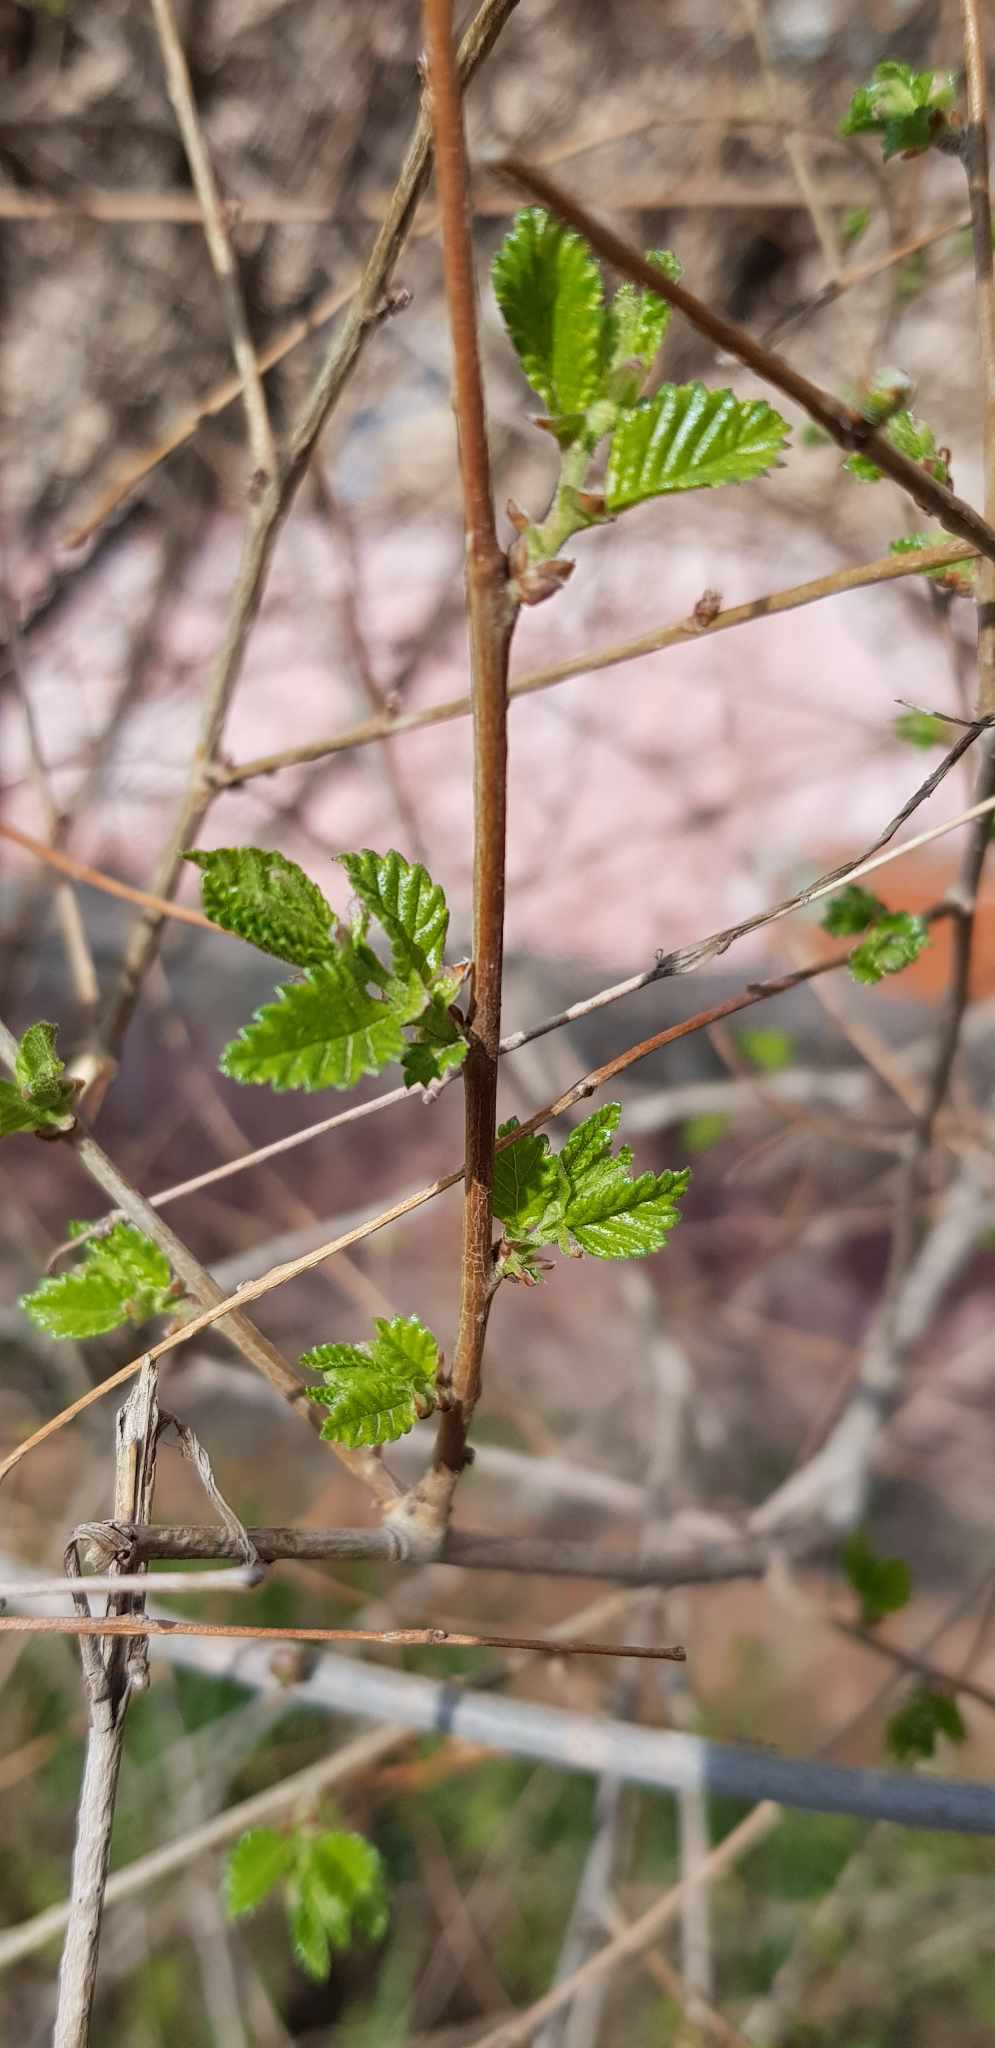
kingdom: Plantae
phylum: Tracheophyta
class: Magnoliopsida
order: Rosales
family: Ulmaceae
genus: Ulmus
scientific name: Ulmus pumila
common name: Siberian elm
